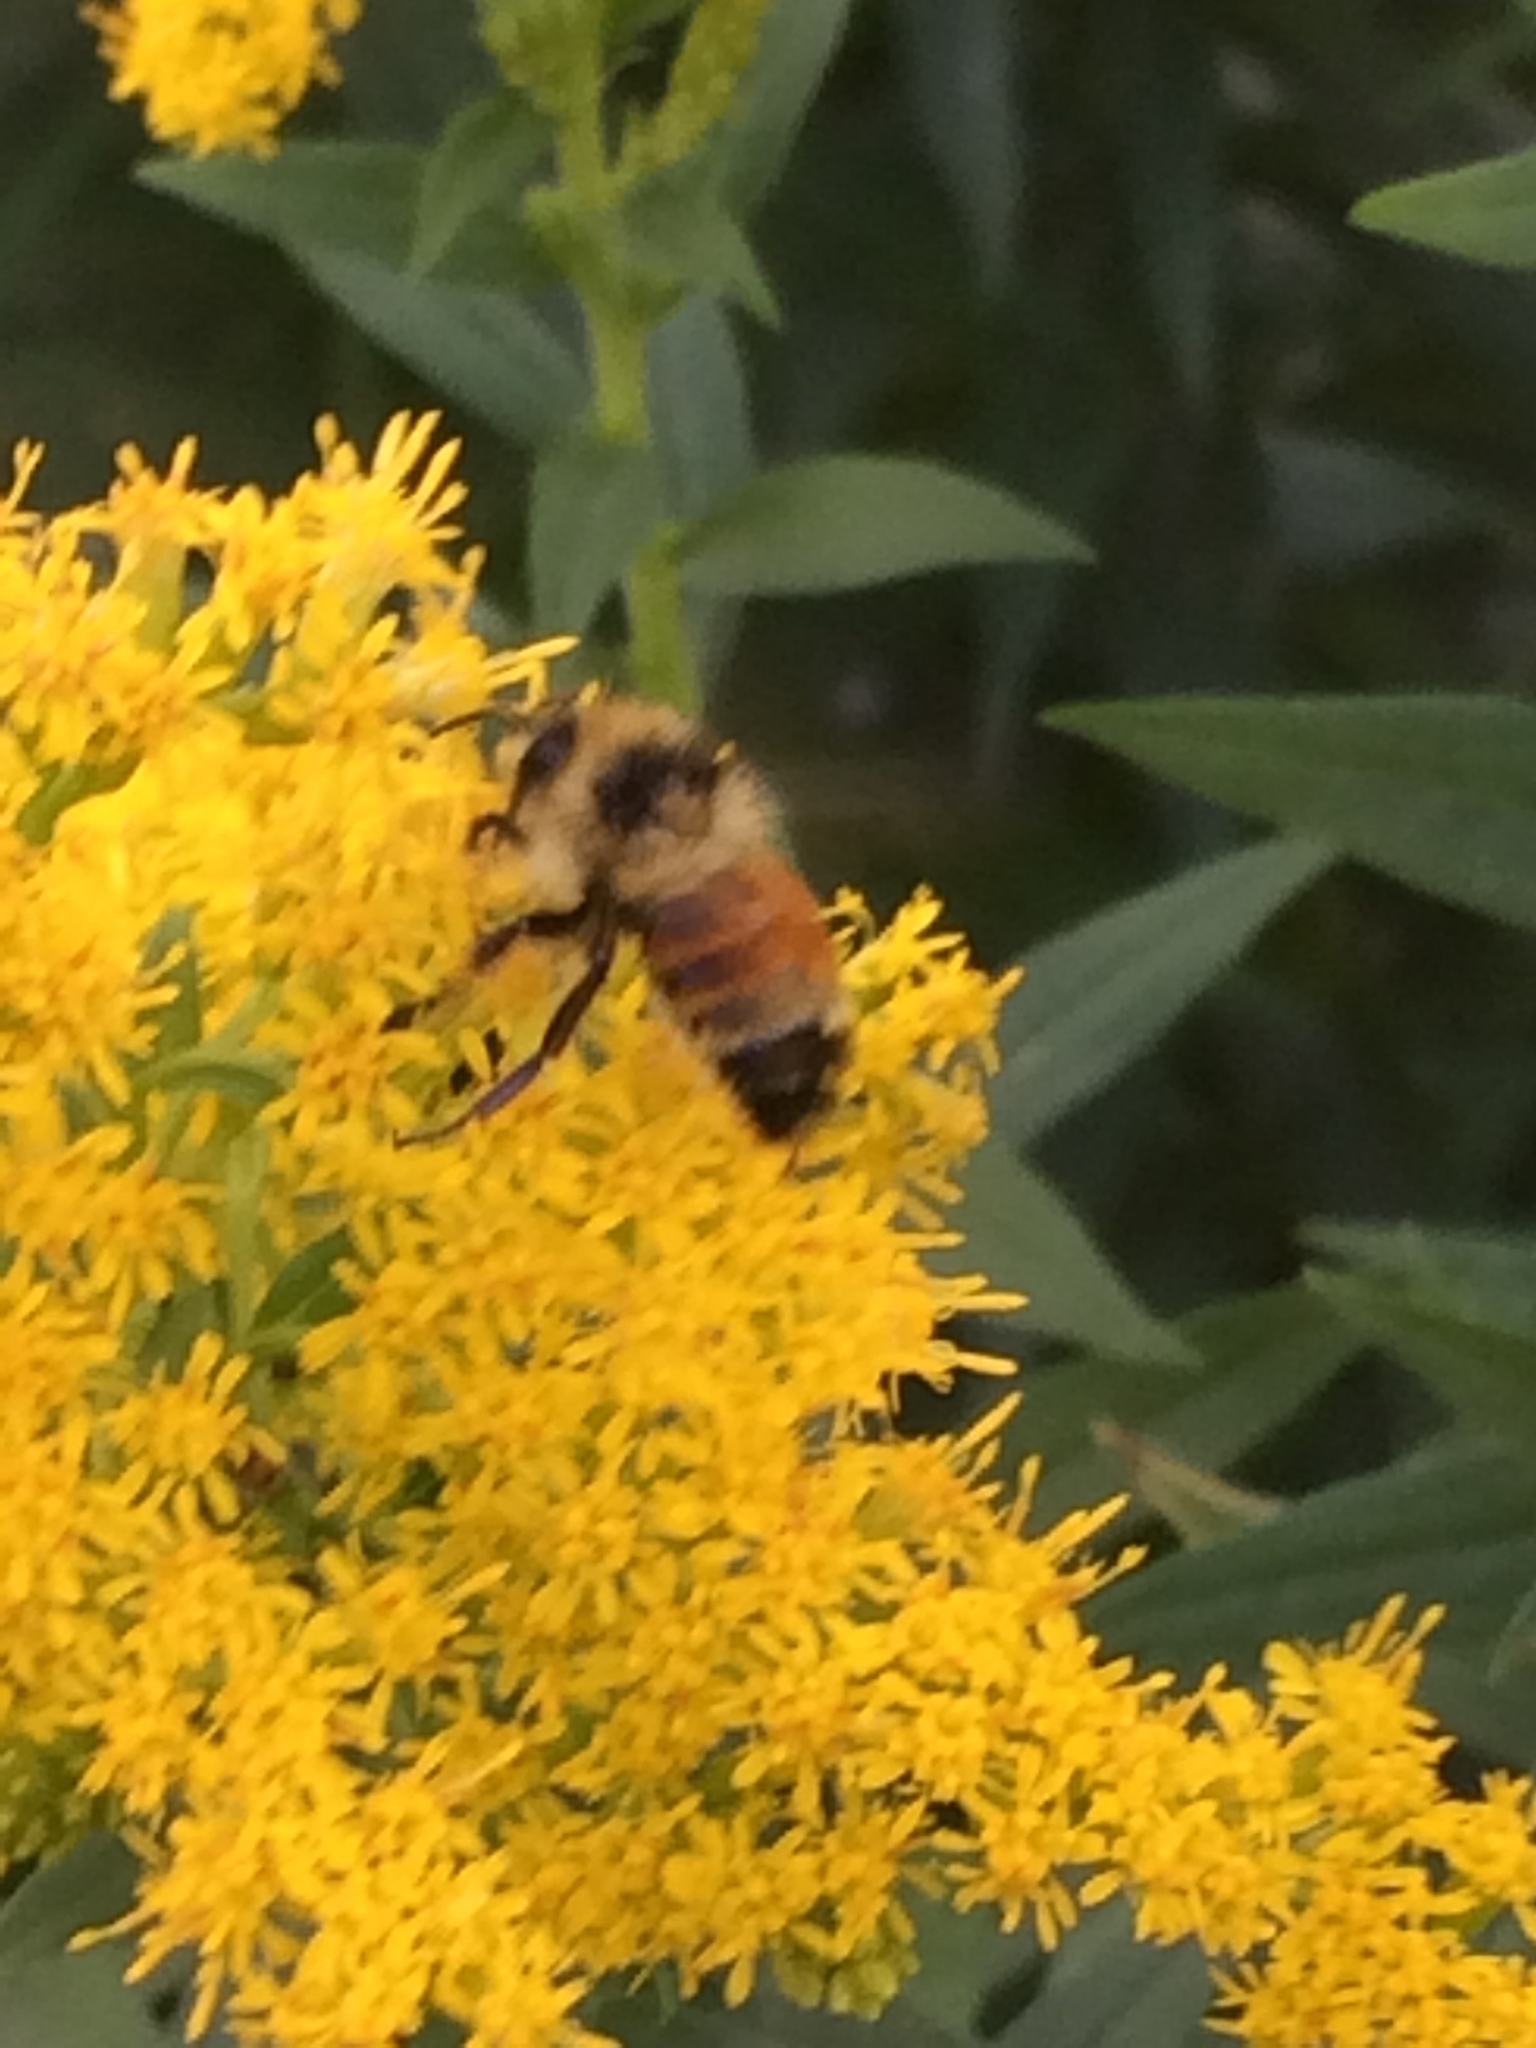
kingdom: Animalia
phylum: Arthropoda
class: Insecta
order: Hymenoptera
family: Apidae
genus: Bombus
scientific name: Bombus ternarius
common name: Tri-colored bumble bee
